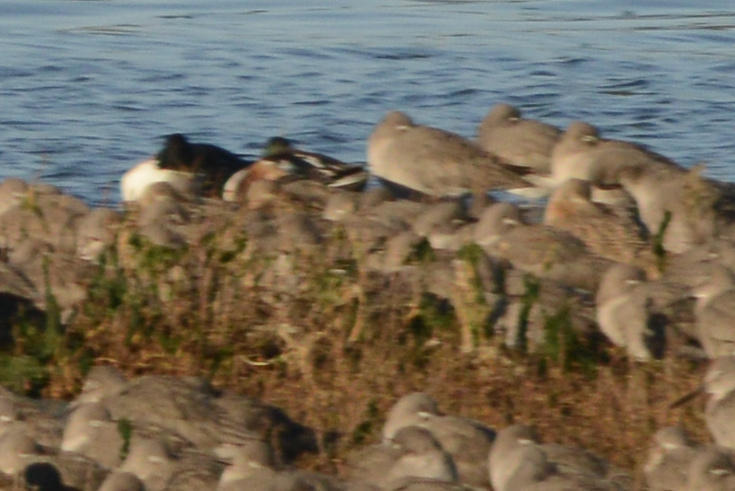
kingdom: Animalia
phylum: Chordata
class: Aves
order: Anseriformes
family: Anatidae
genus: Spatula
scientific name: Spatula clypeata
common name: Northern shoveler
